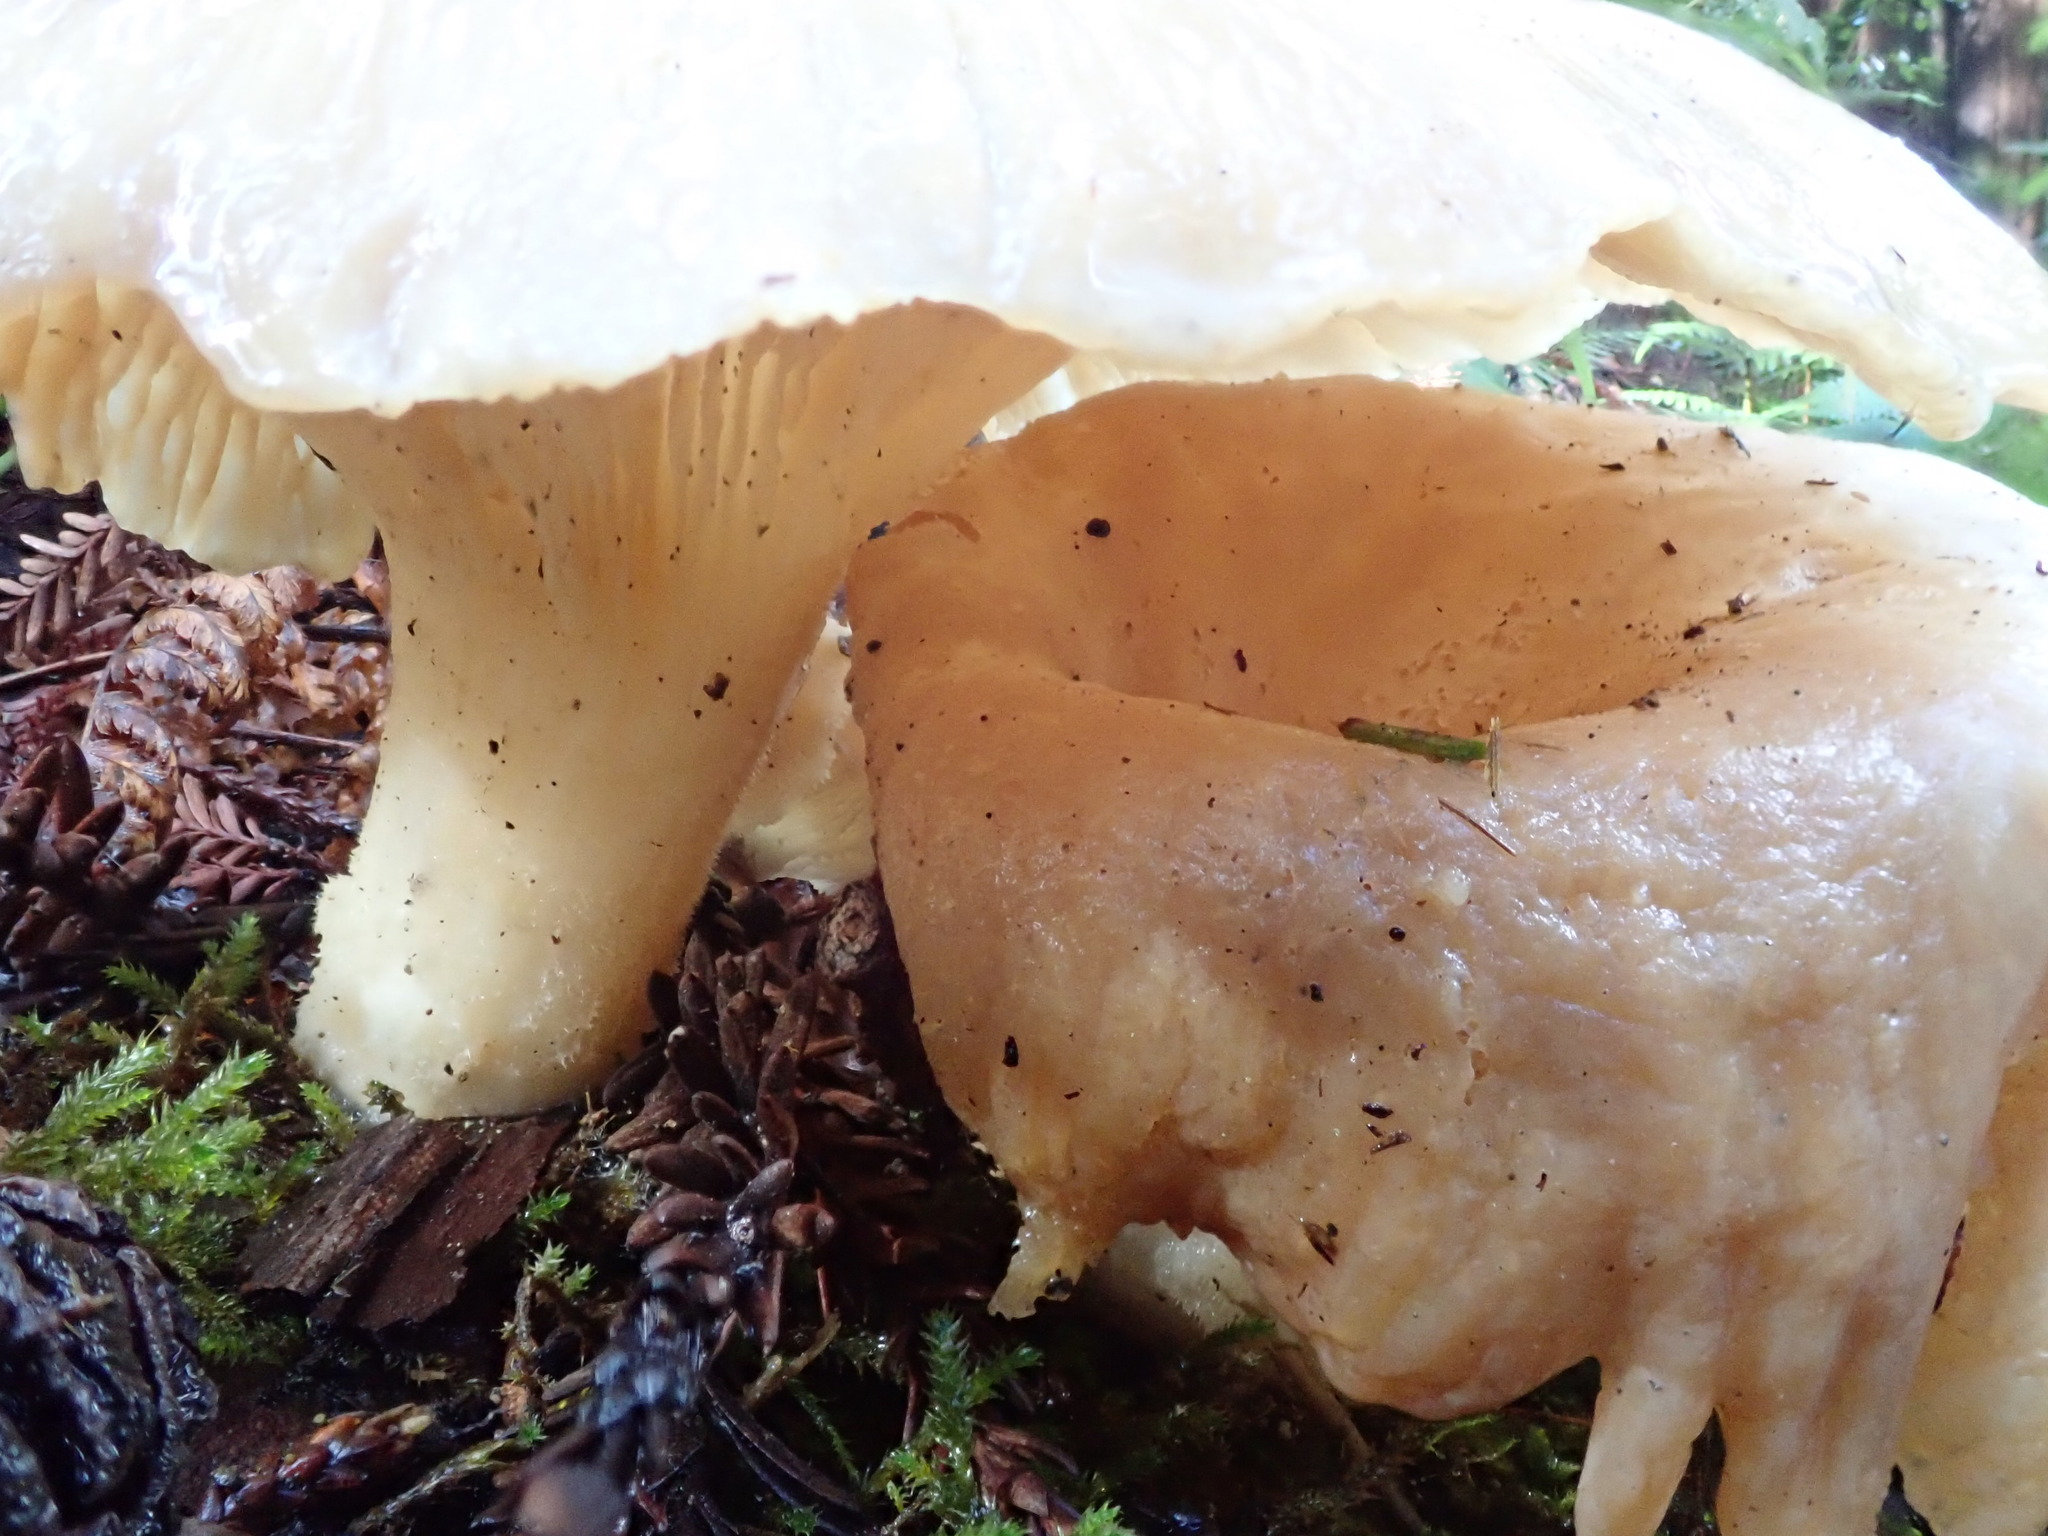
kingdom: Fungi
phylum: Basidiomycota
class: Agaricomycetes
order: Agaricales
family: Pleurotaceae
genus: Pleurotus
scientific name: Pleurotus pulmonarius
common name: Pale oyster
